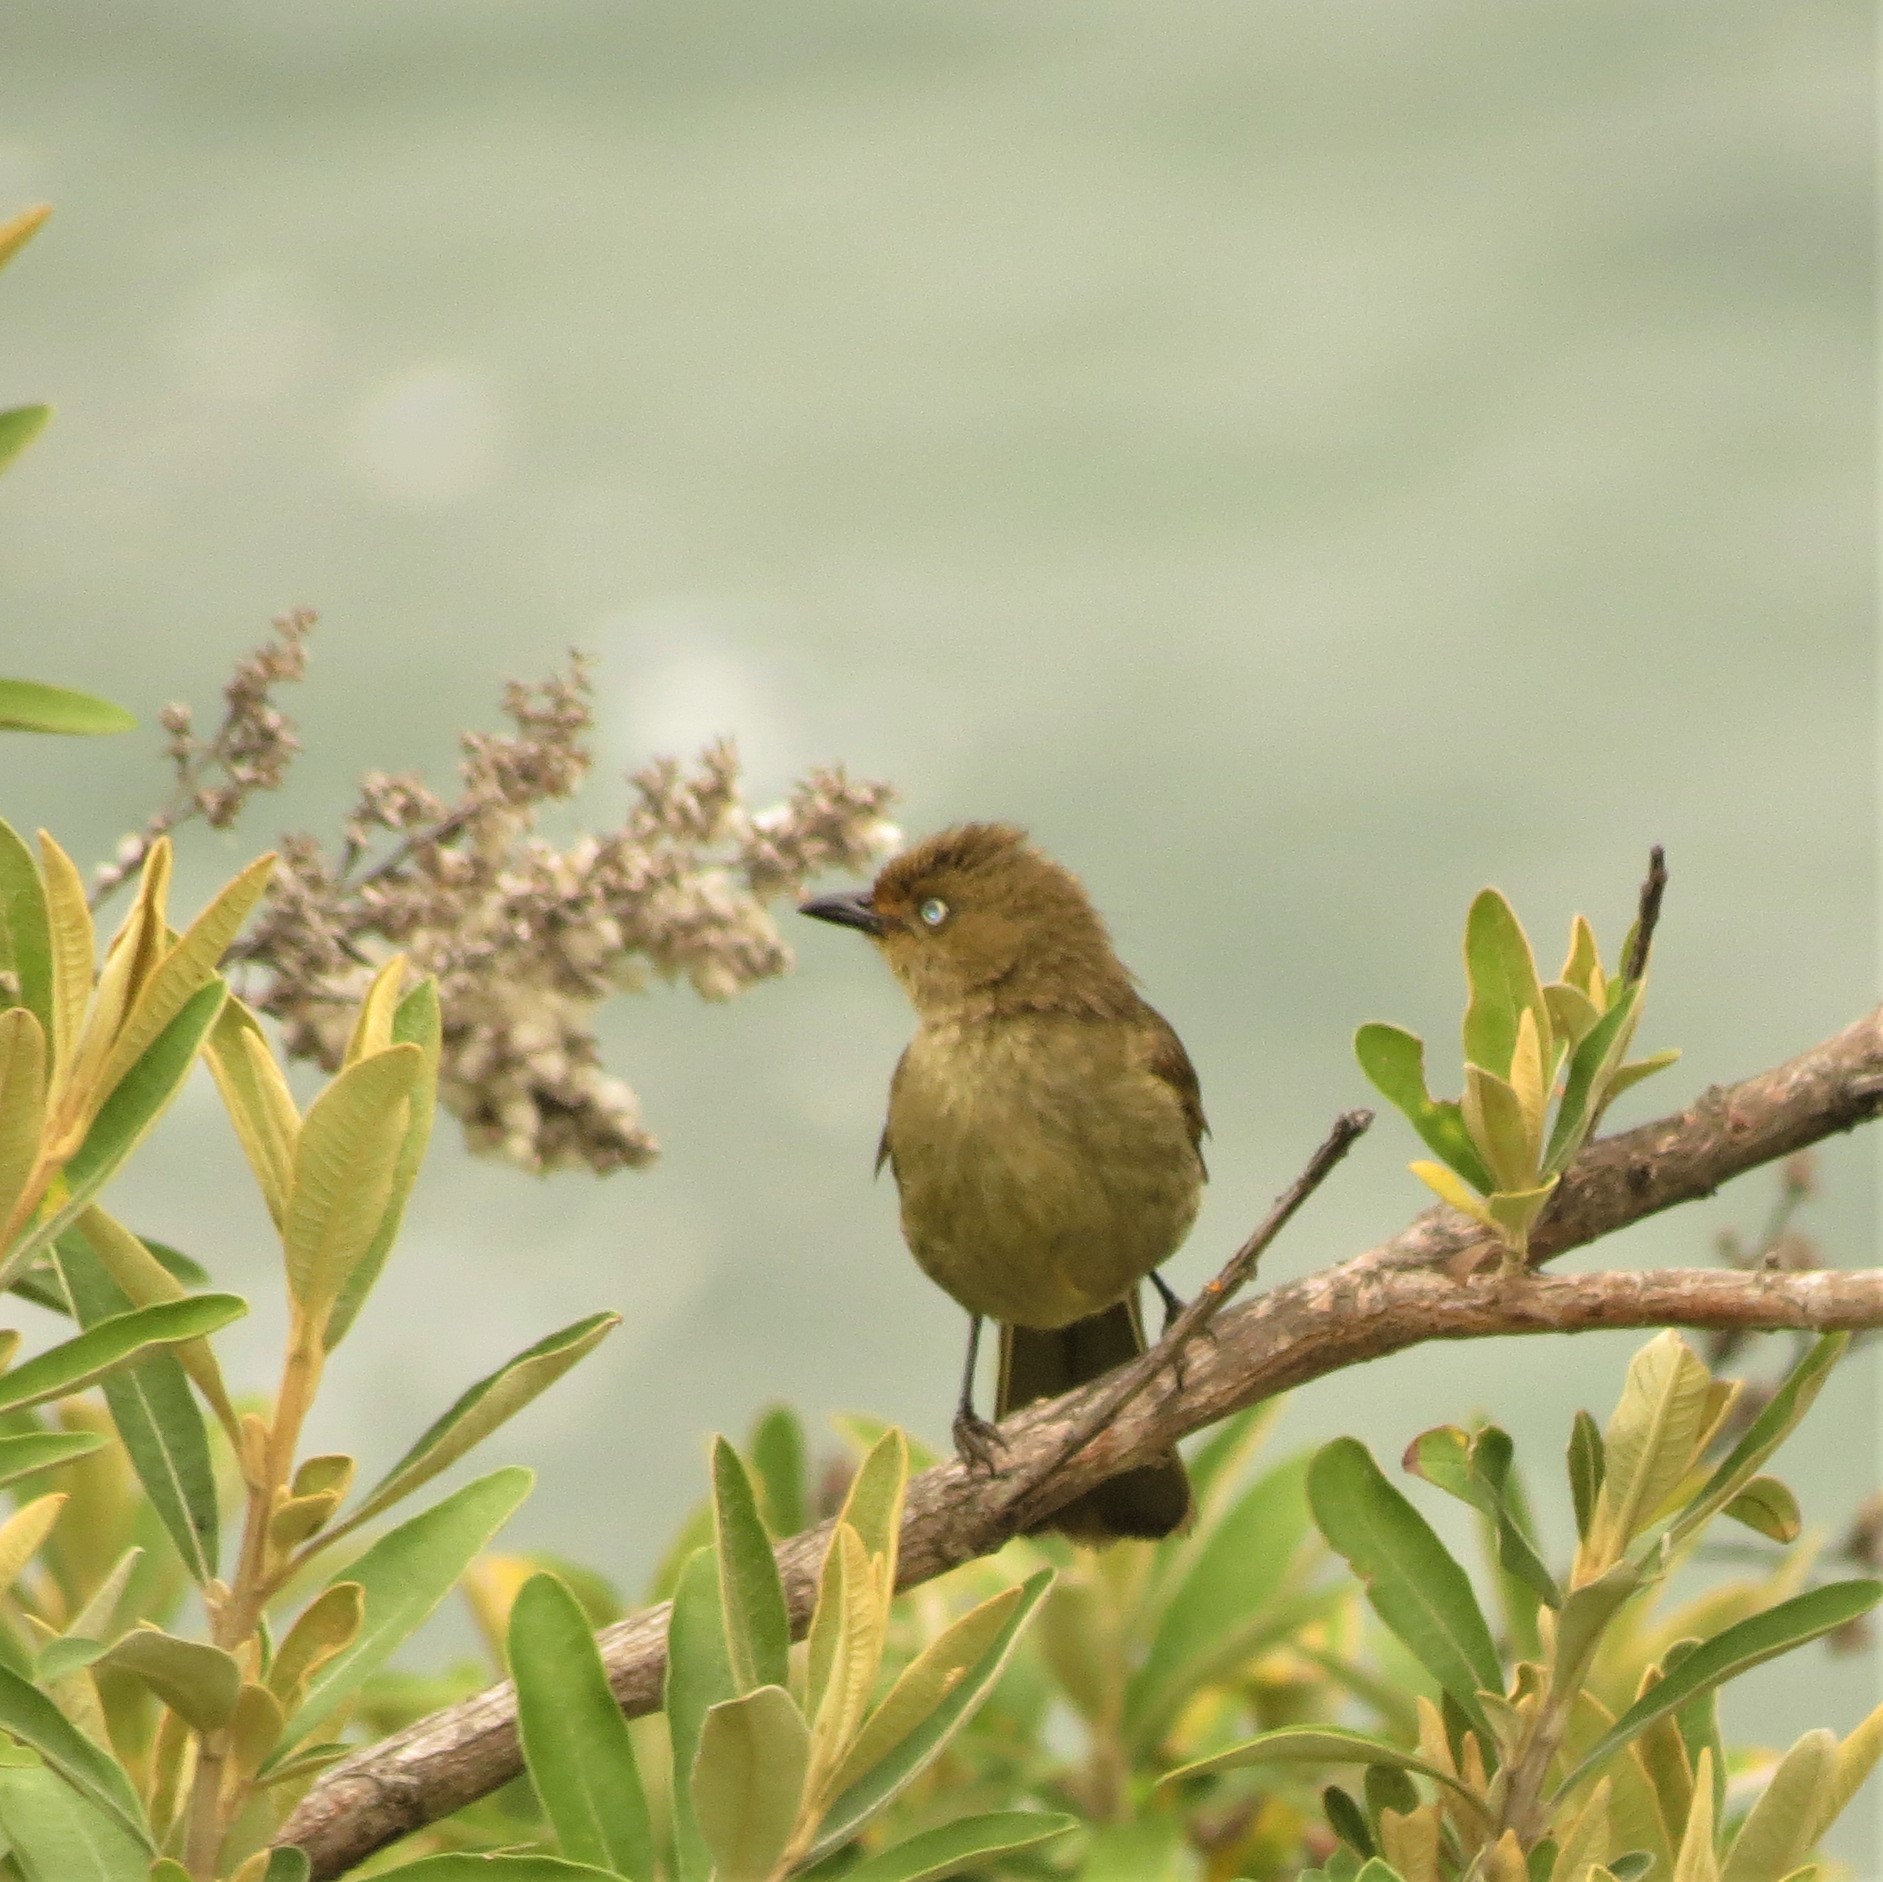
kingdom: Animalia
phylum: Chordata
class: Aves
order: Passeriformes
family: Pycnonotidae
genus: Andropadus
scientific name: Andropadus importunus
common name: Sombre greenbul
